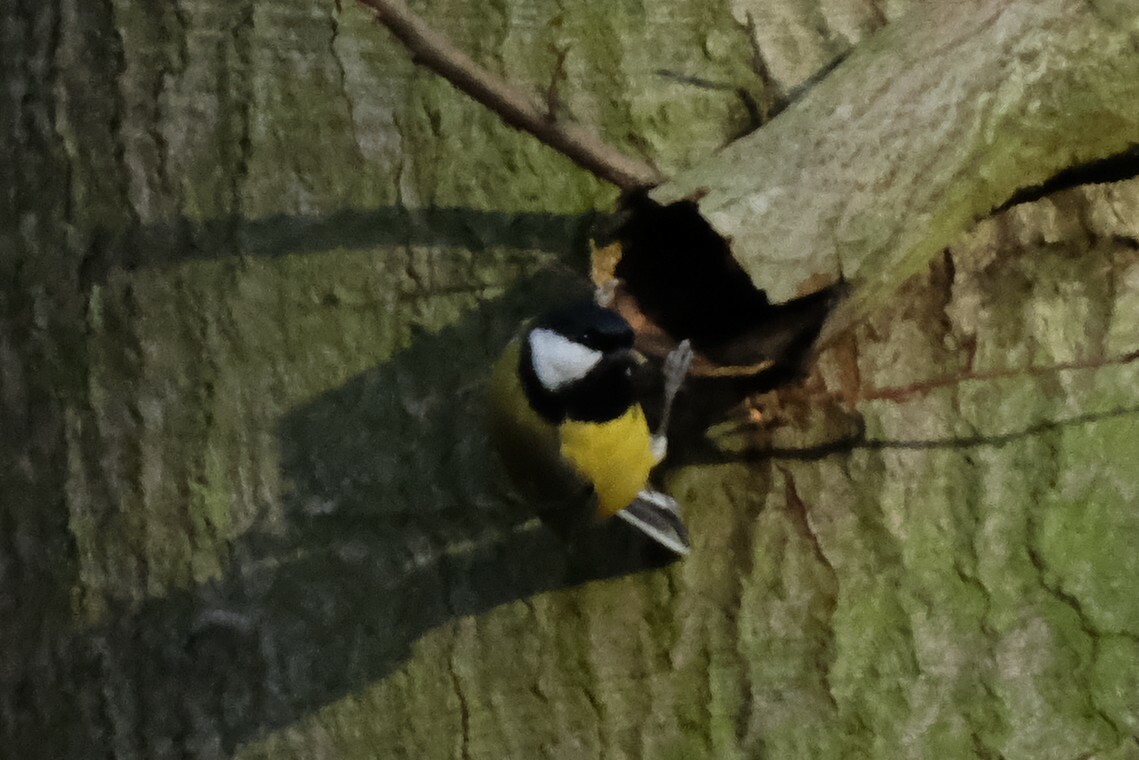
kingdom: Animalia
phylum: Chordata
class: Aves
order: Passeriformes
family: Paridae
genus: Parus
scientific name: Parus major
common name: Great tit
